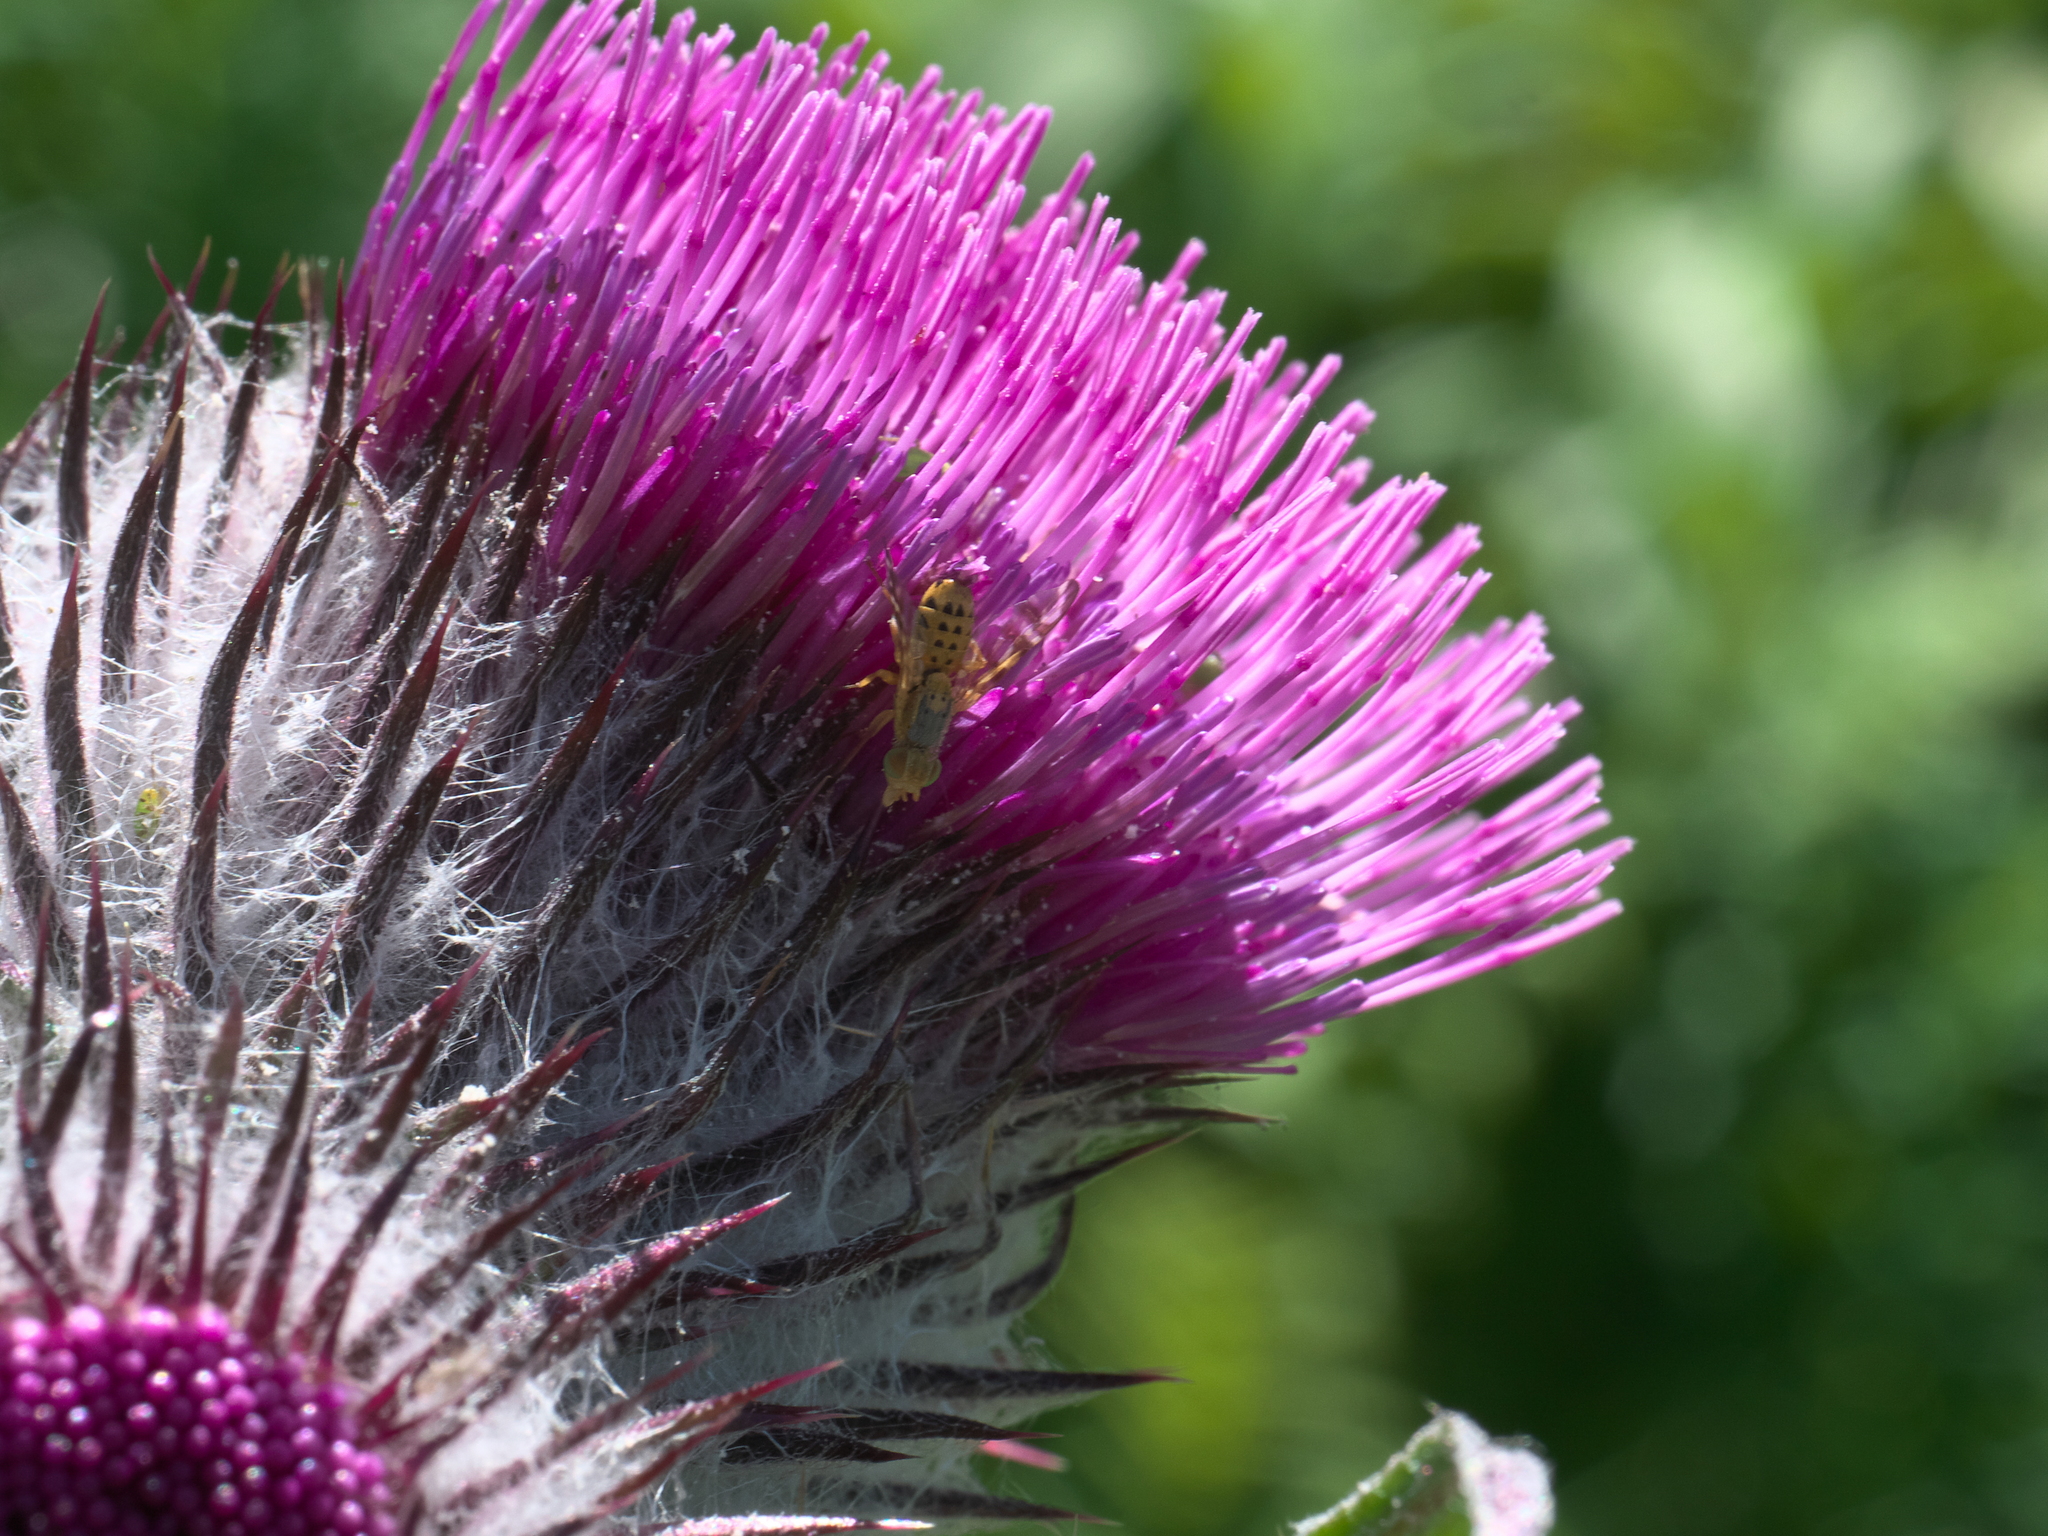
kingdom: Plantae
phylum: Tracheophyta
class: Magnoliopsida
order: Asterales
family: Asteraceae
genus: Cirsium
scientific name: Cirsium edule
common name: Indian thistle
